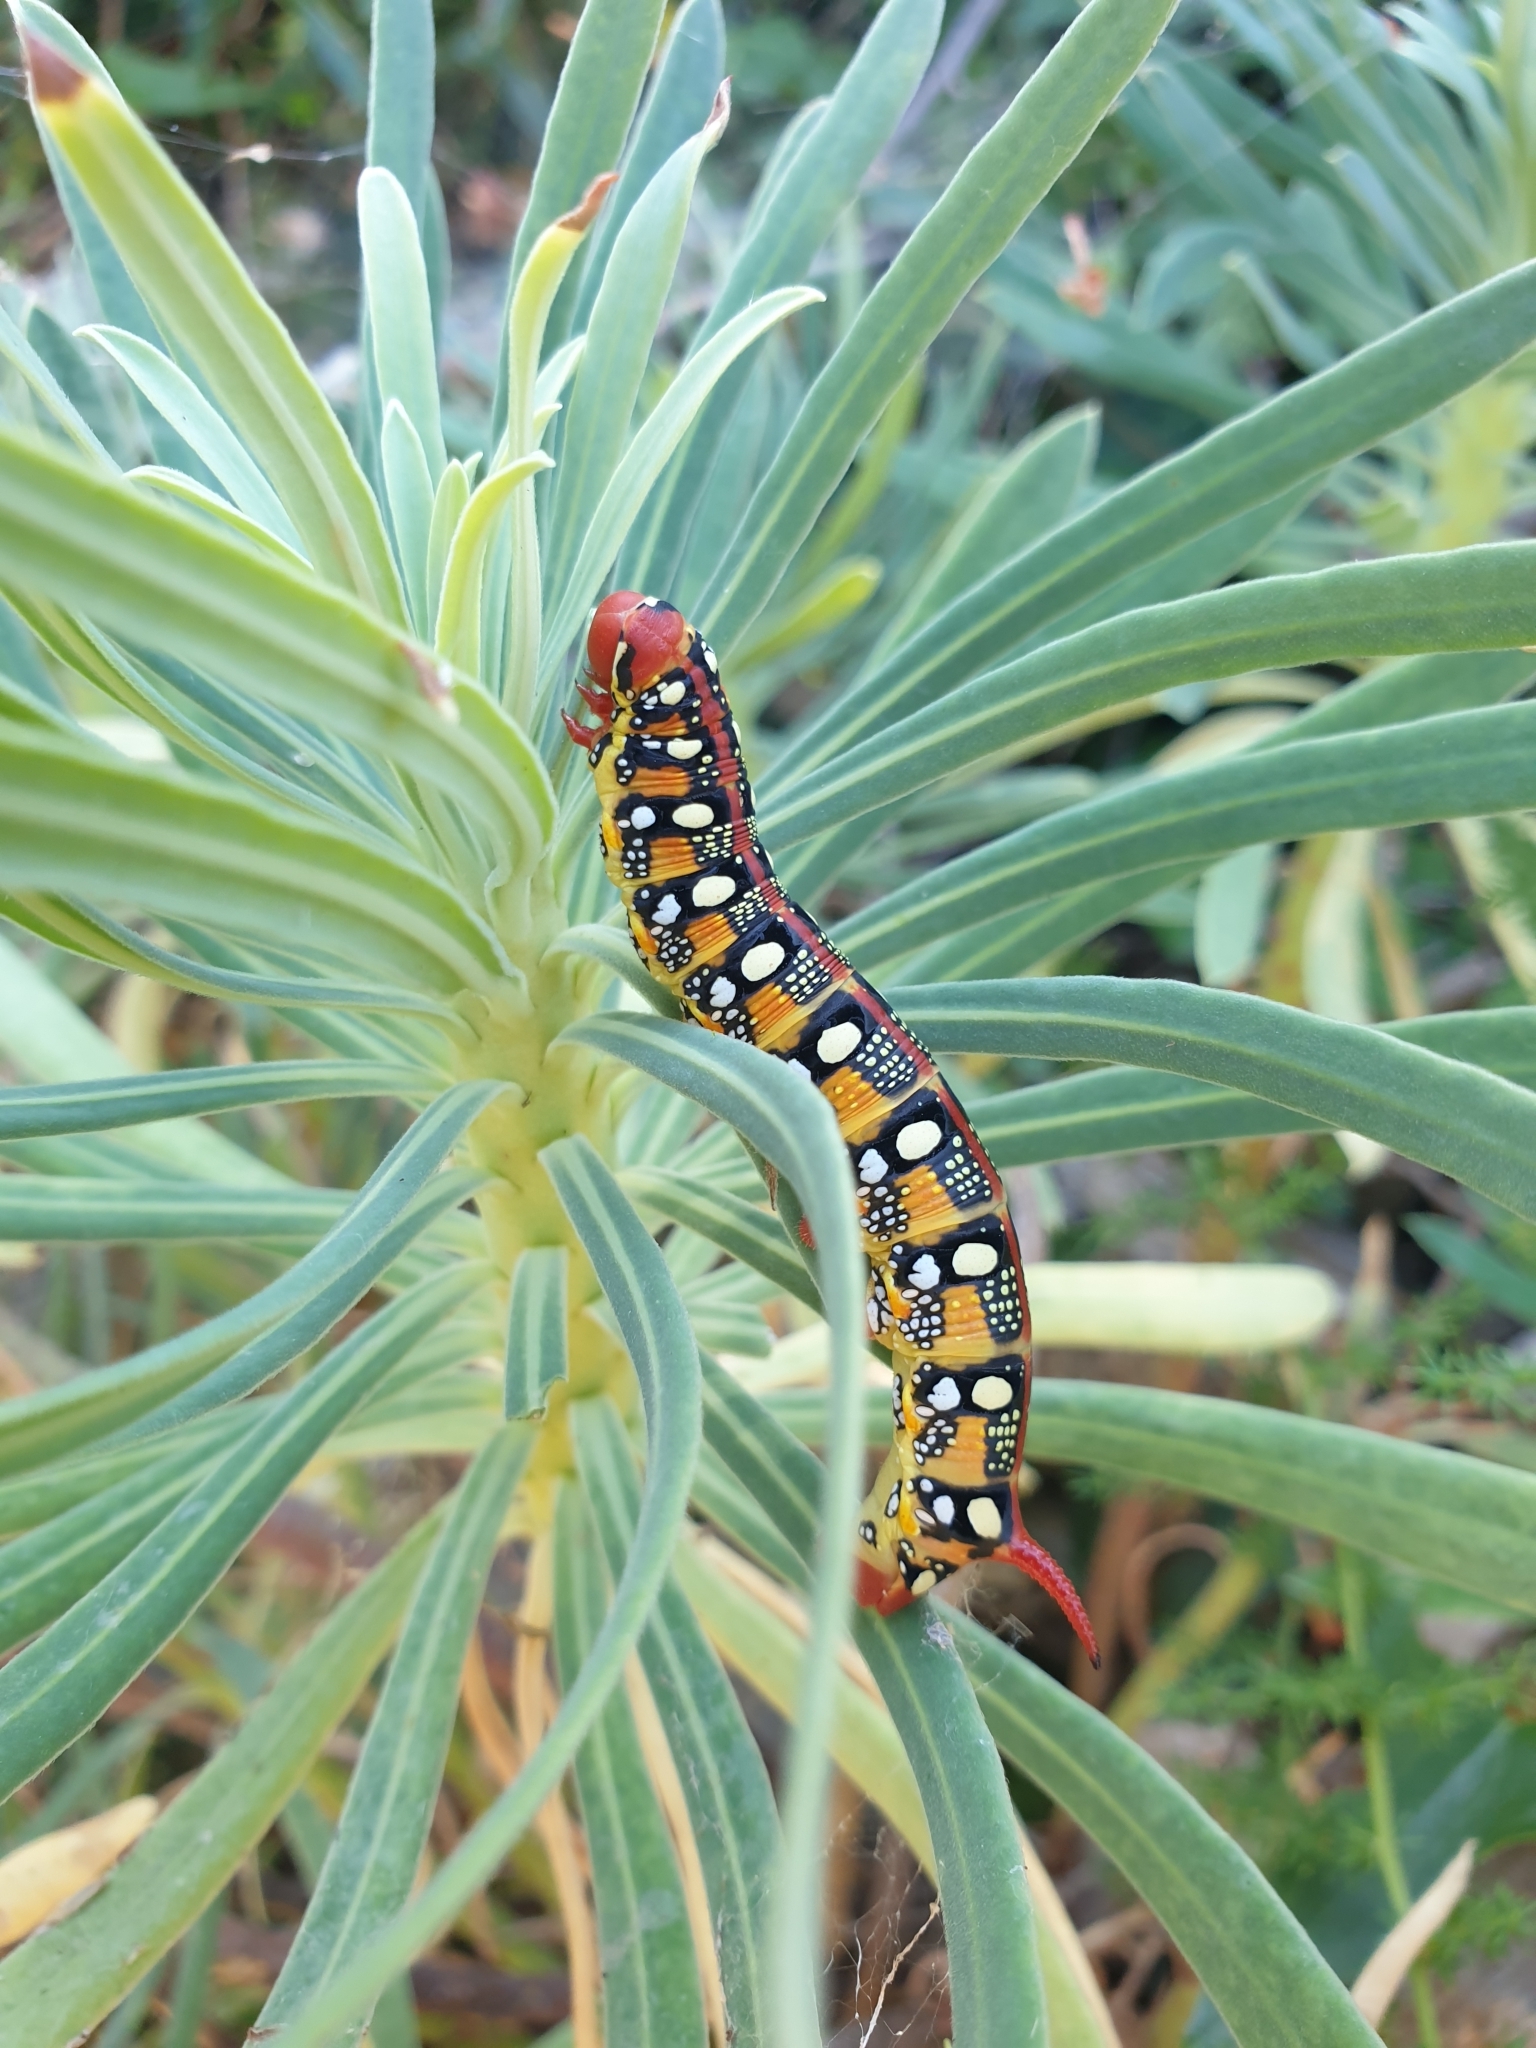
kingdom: Animalia
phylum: Arthropoda
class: Insecta
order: Lepidoptera
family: Sphingidae
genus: Hyles
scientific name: Hyles euphorbiae
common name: Spurge hawk-moth
